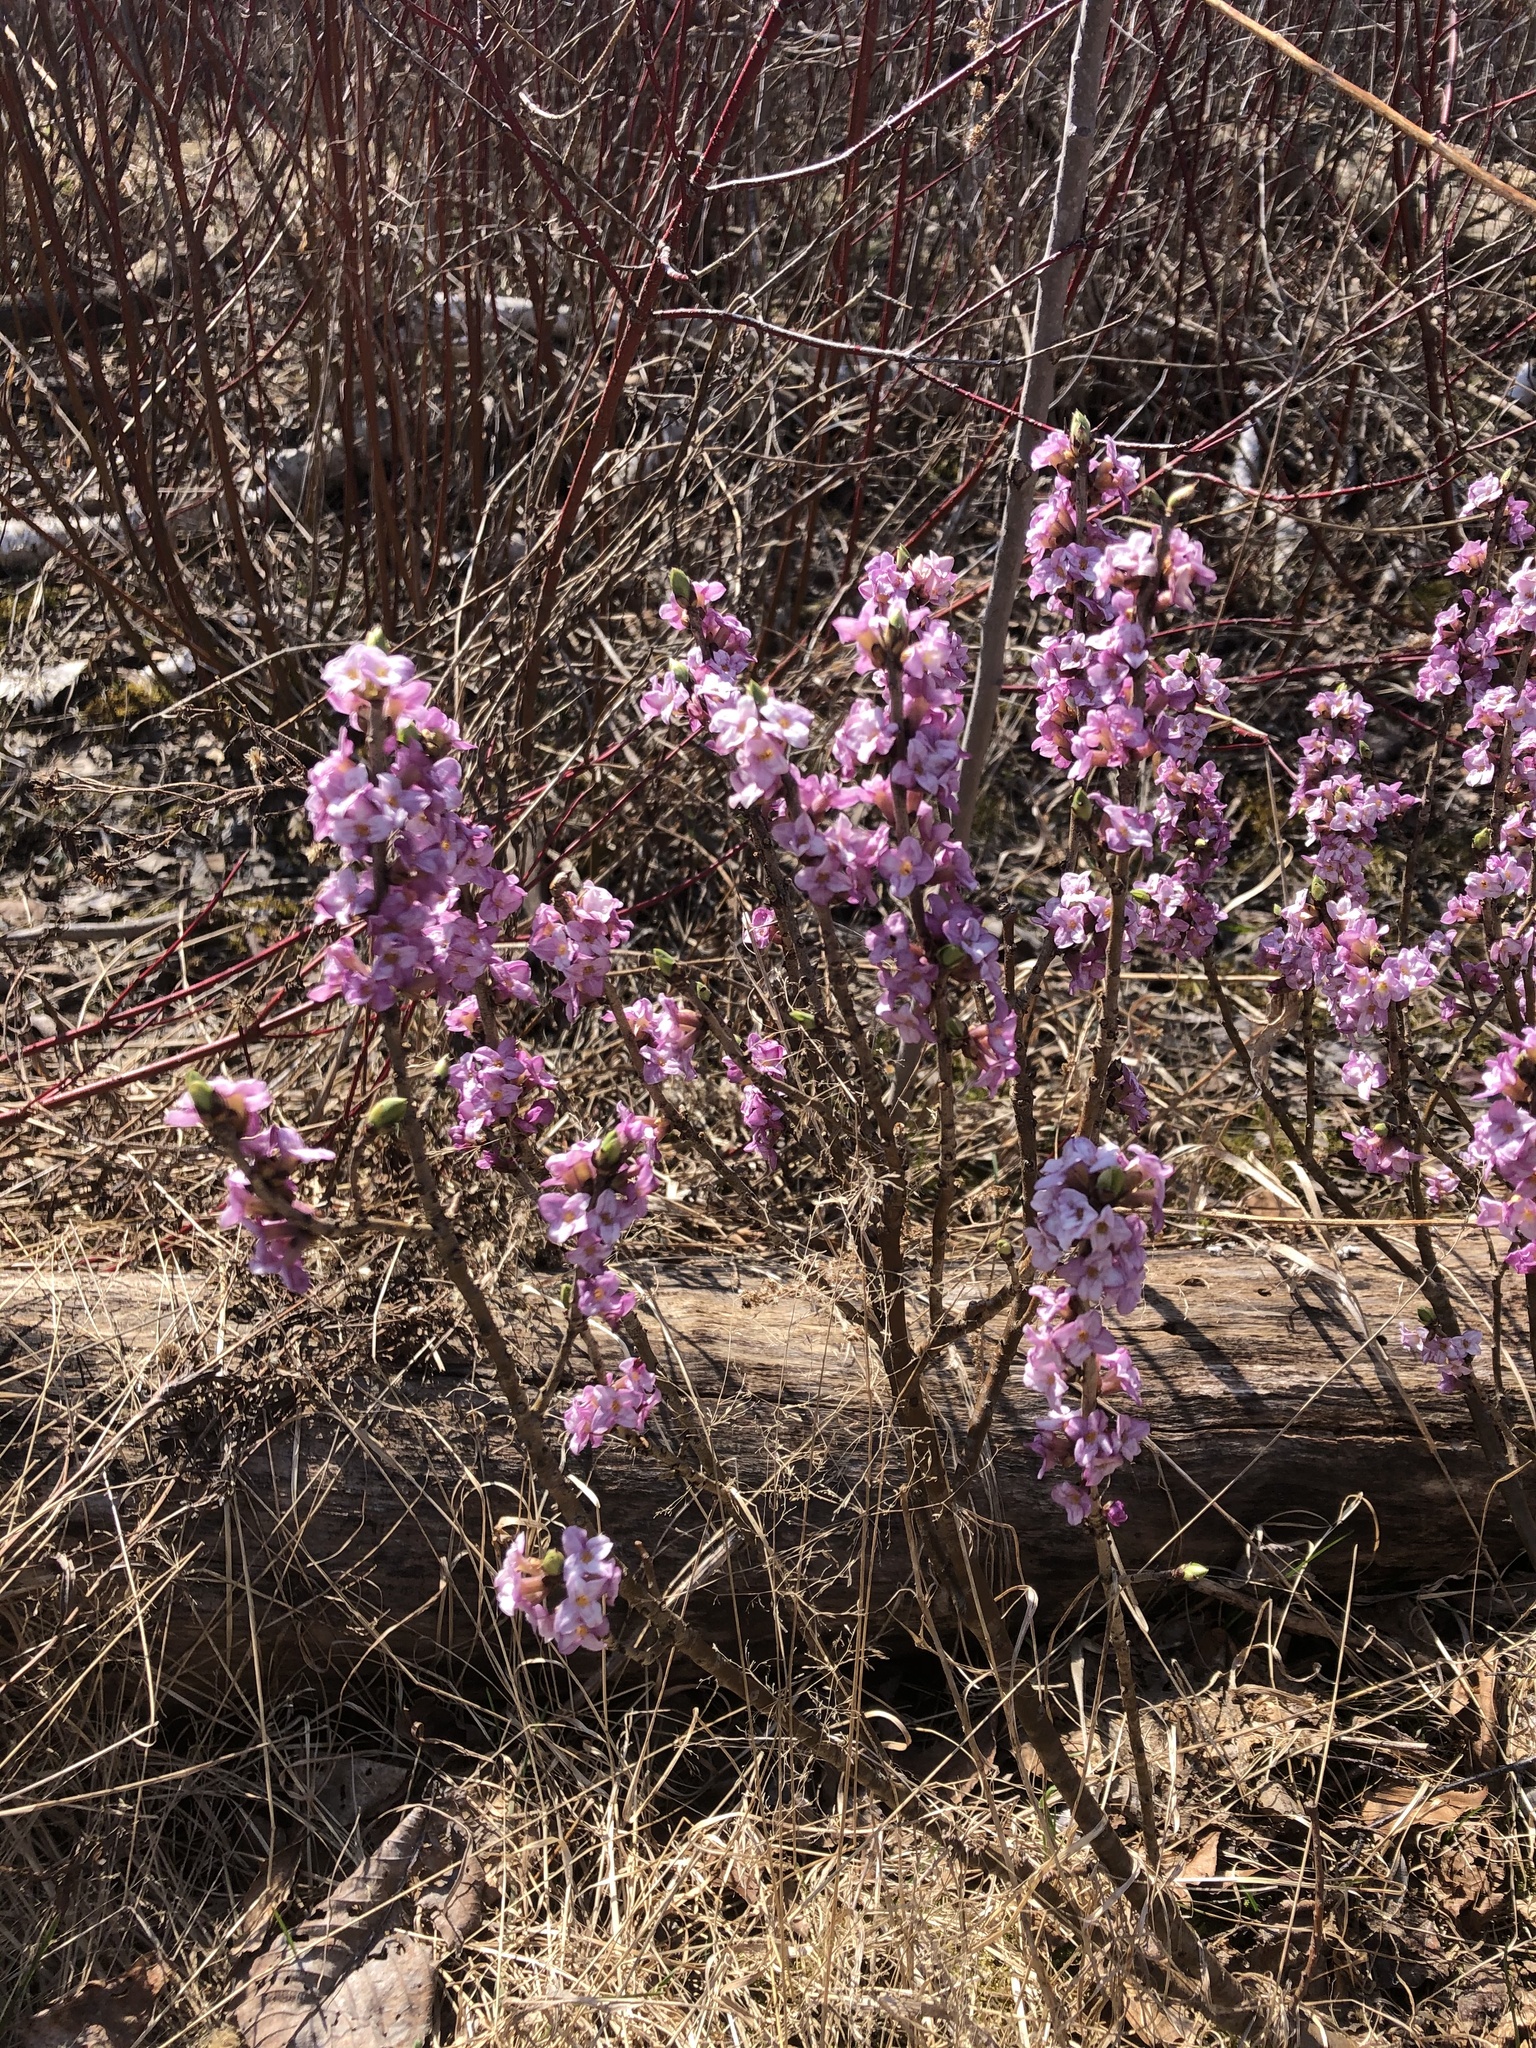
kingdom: Plantae
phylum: Tracheophyta
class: Magnoliopsida
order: Malvales
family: Thymelaeaceae
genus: Daphne
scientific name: Daphne mezereum
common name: Mezereon
